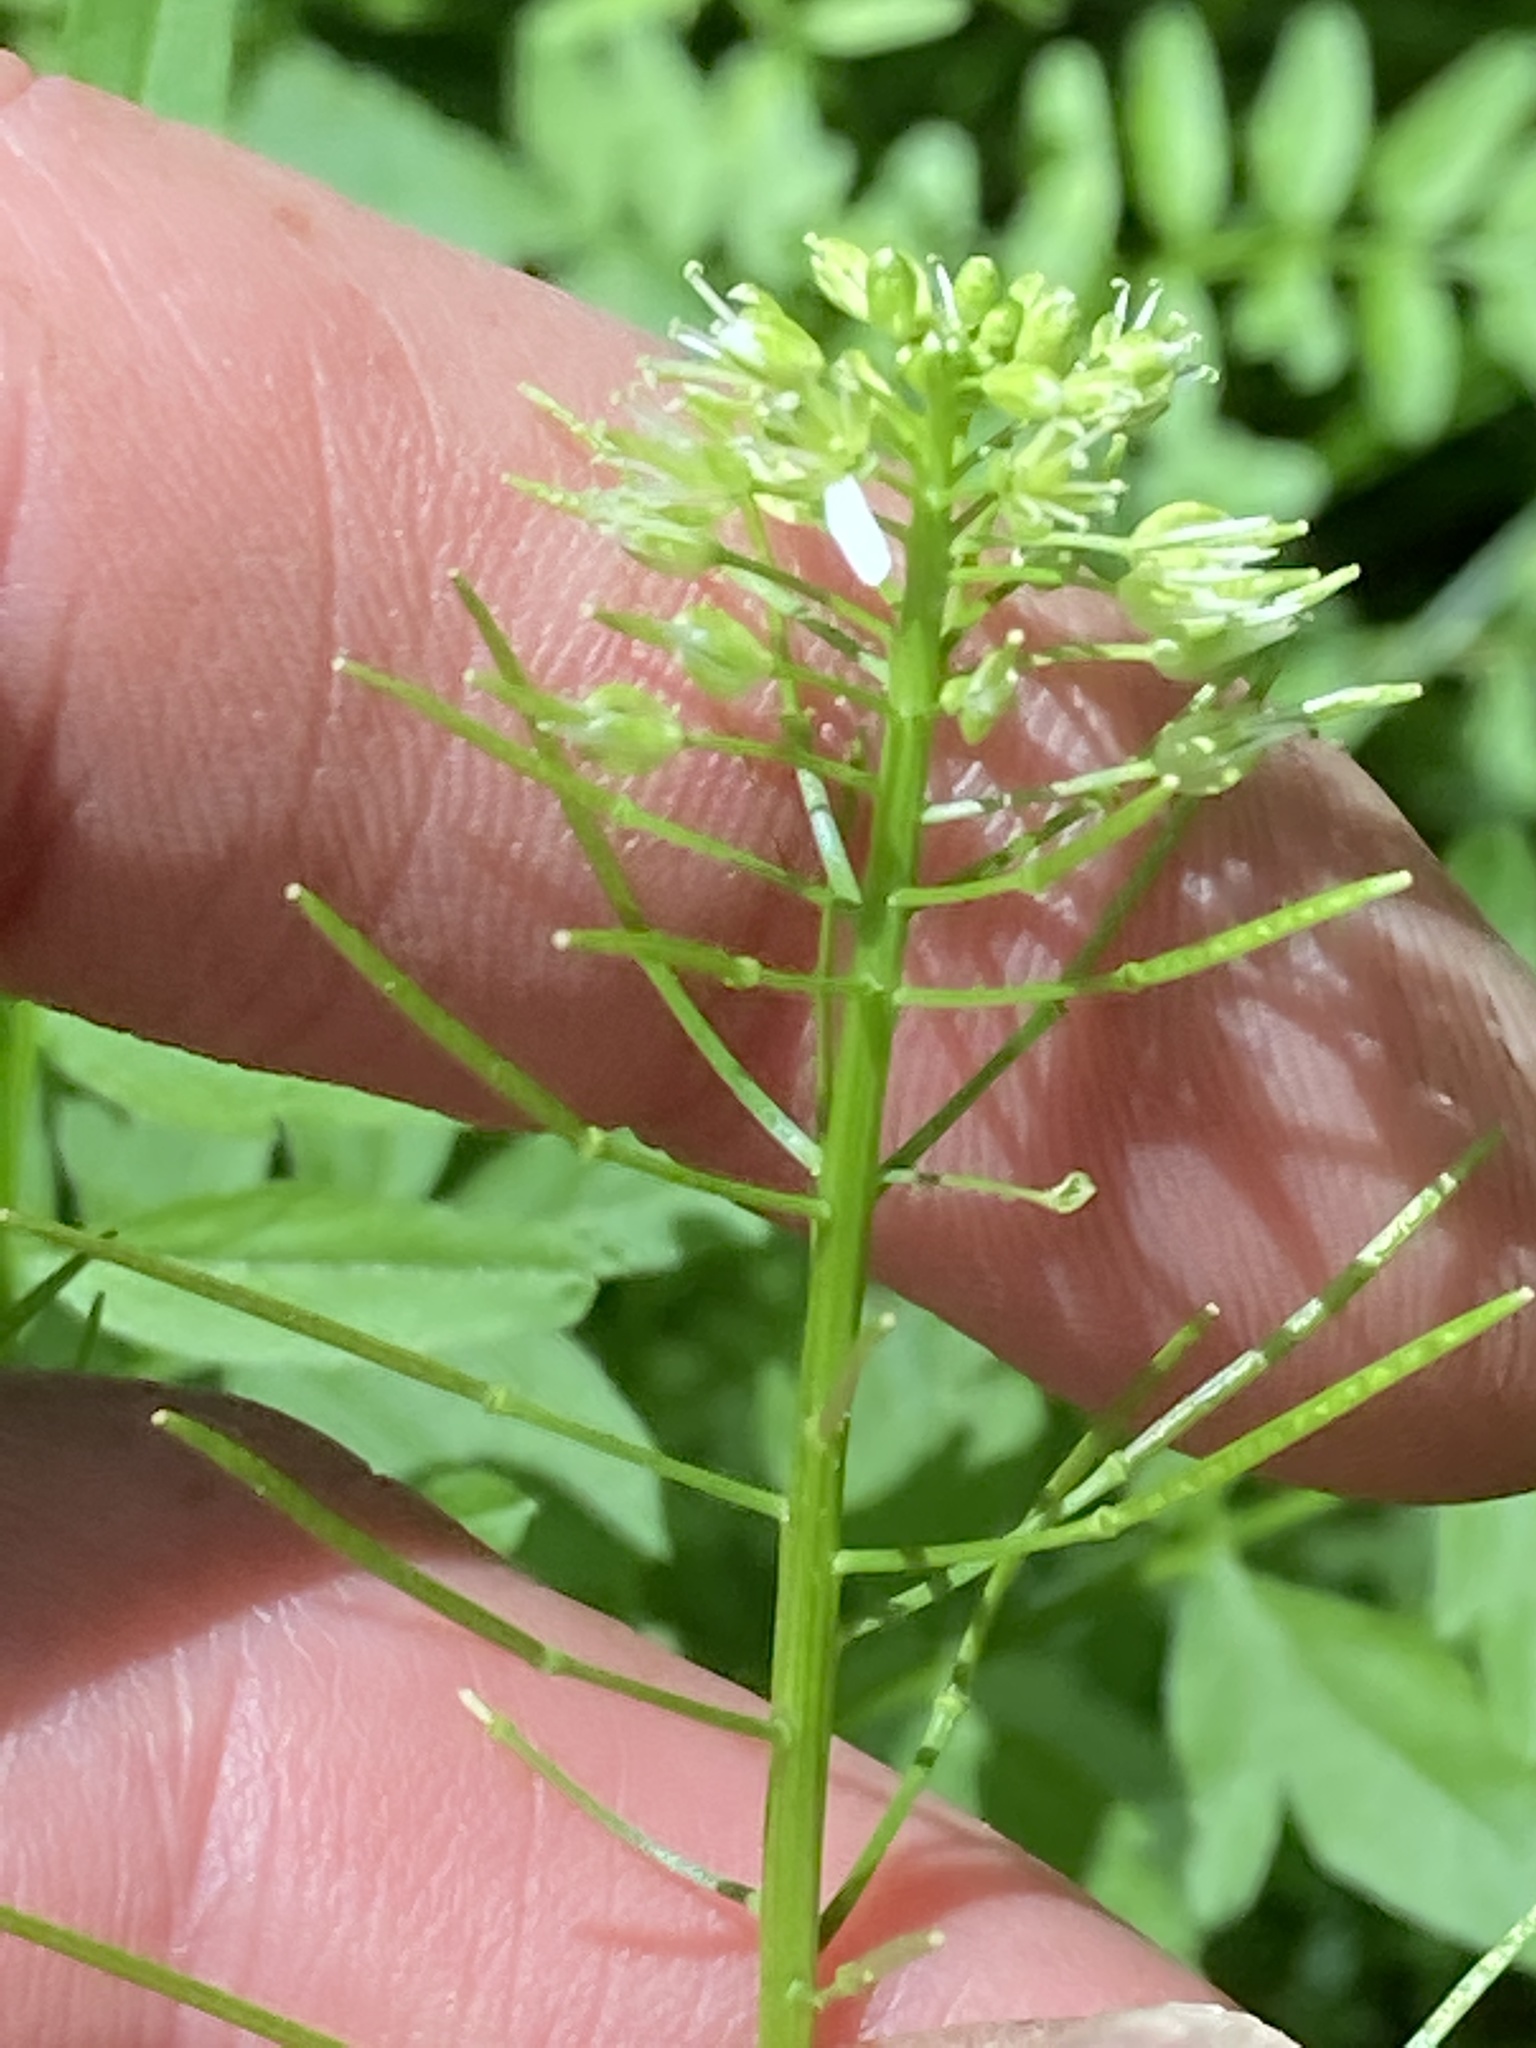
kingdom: Plantae
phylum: Tracheophyta
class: Magnoliopsida
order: Brassicales
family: Brassicaceae
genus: Cardamine
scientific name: Cardamine impatiens
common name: Narrow-leaved bitter-cress
